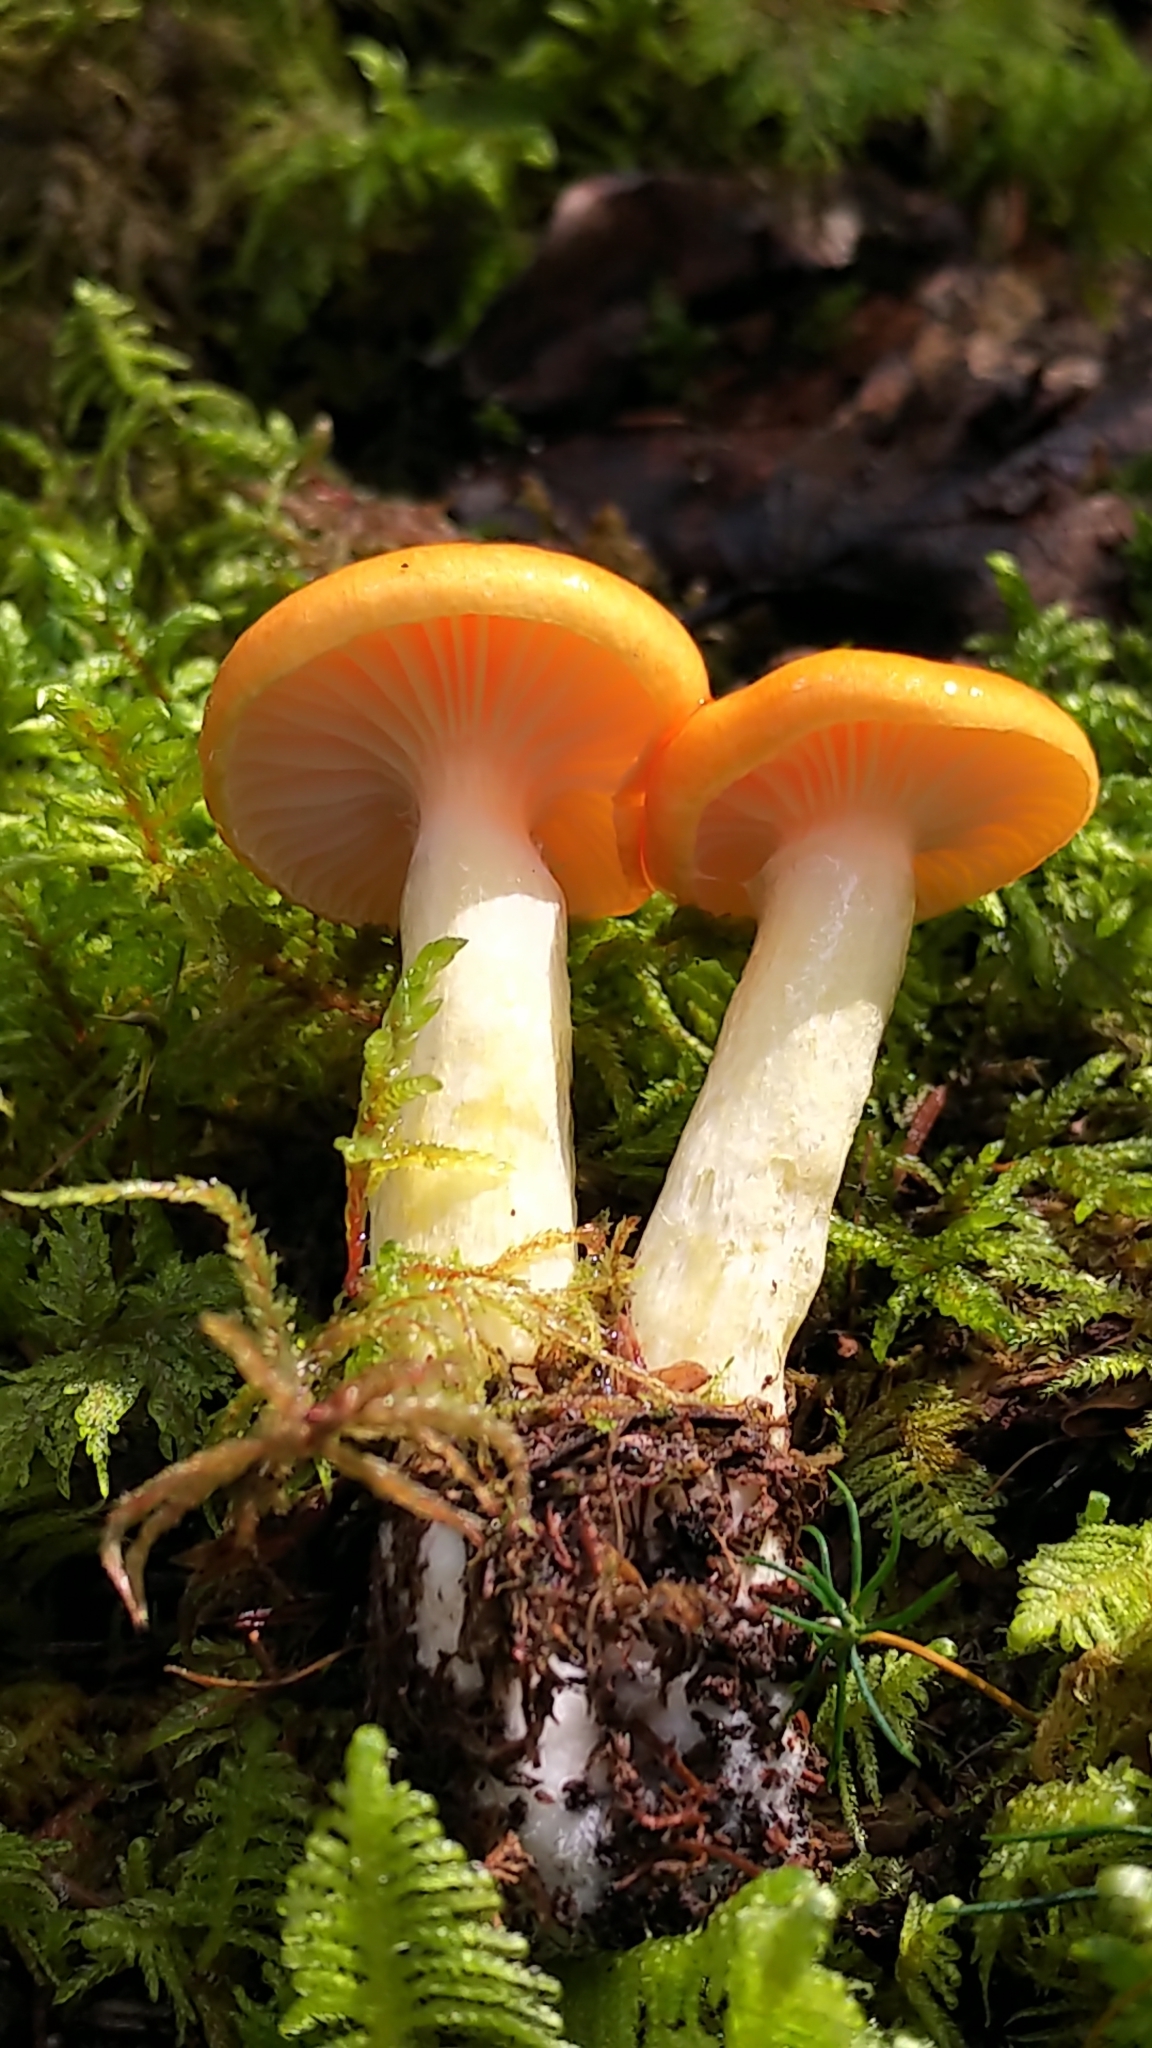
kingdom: Fungi
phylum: Basidiomycota
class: Agaricomycetes
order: Agaricales
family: Hygrophoraceae
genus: Hygrophorus
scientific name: Hygrophorus speciosus
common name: Splendid woodwax
